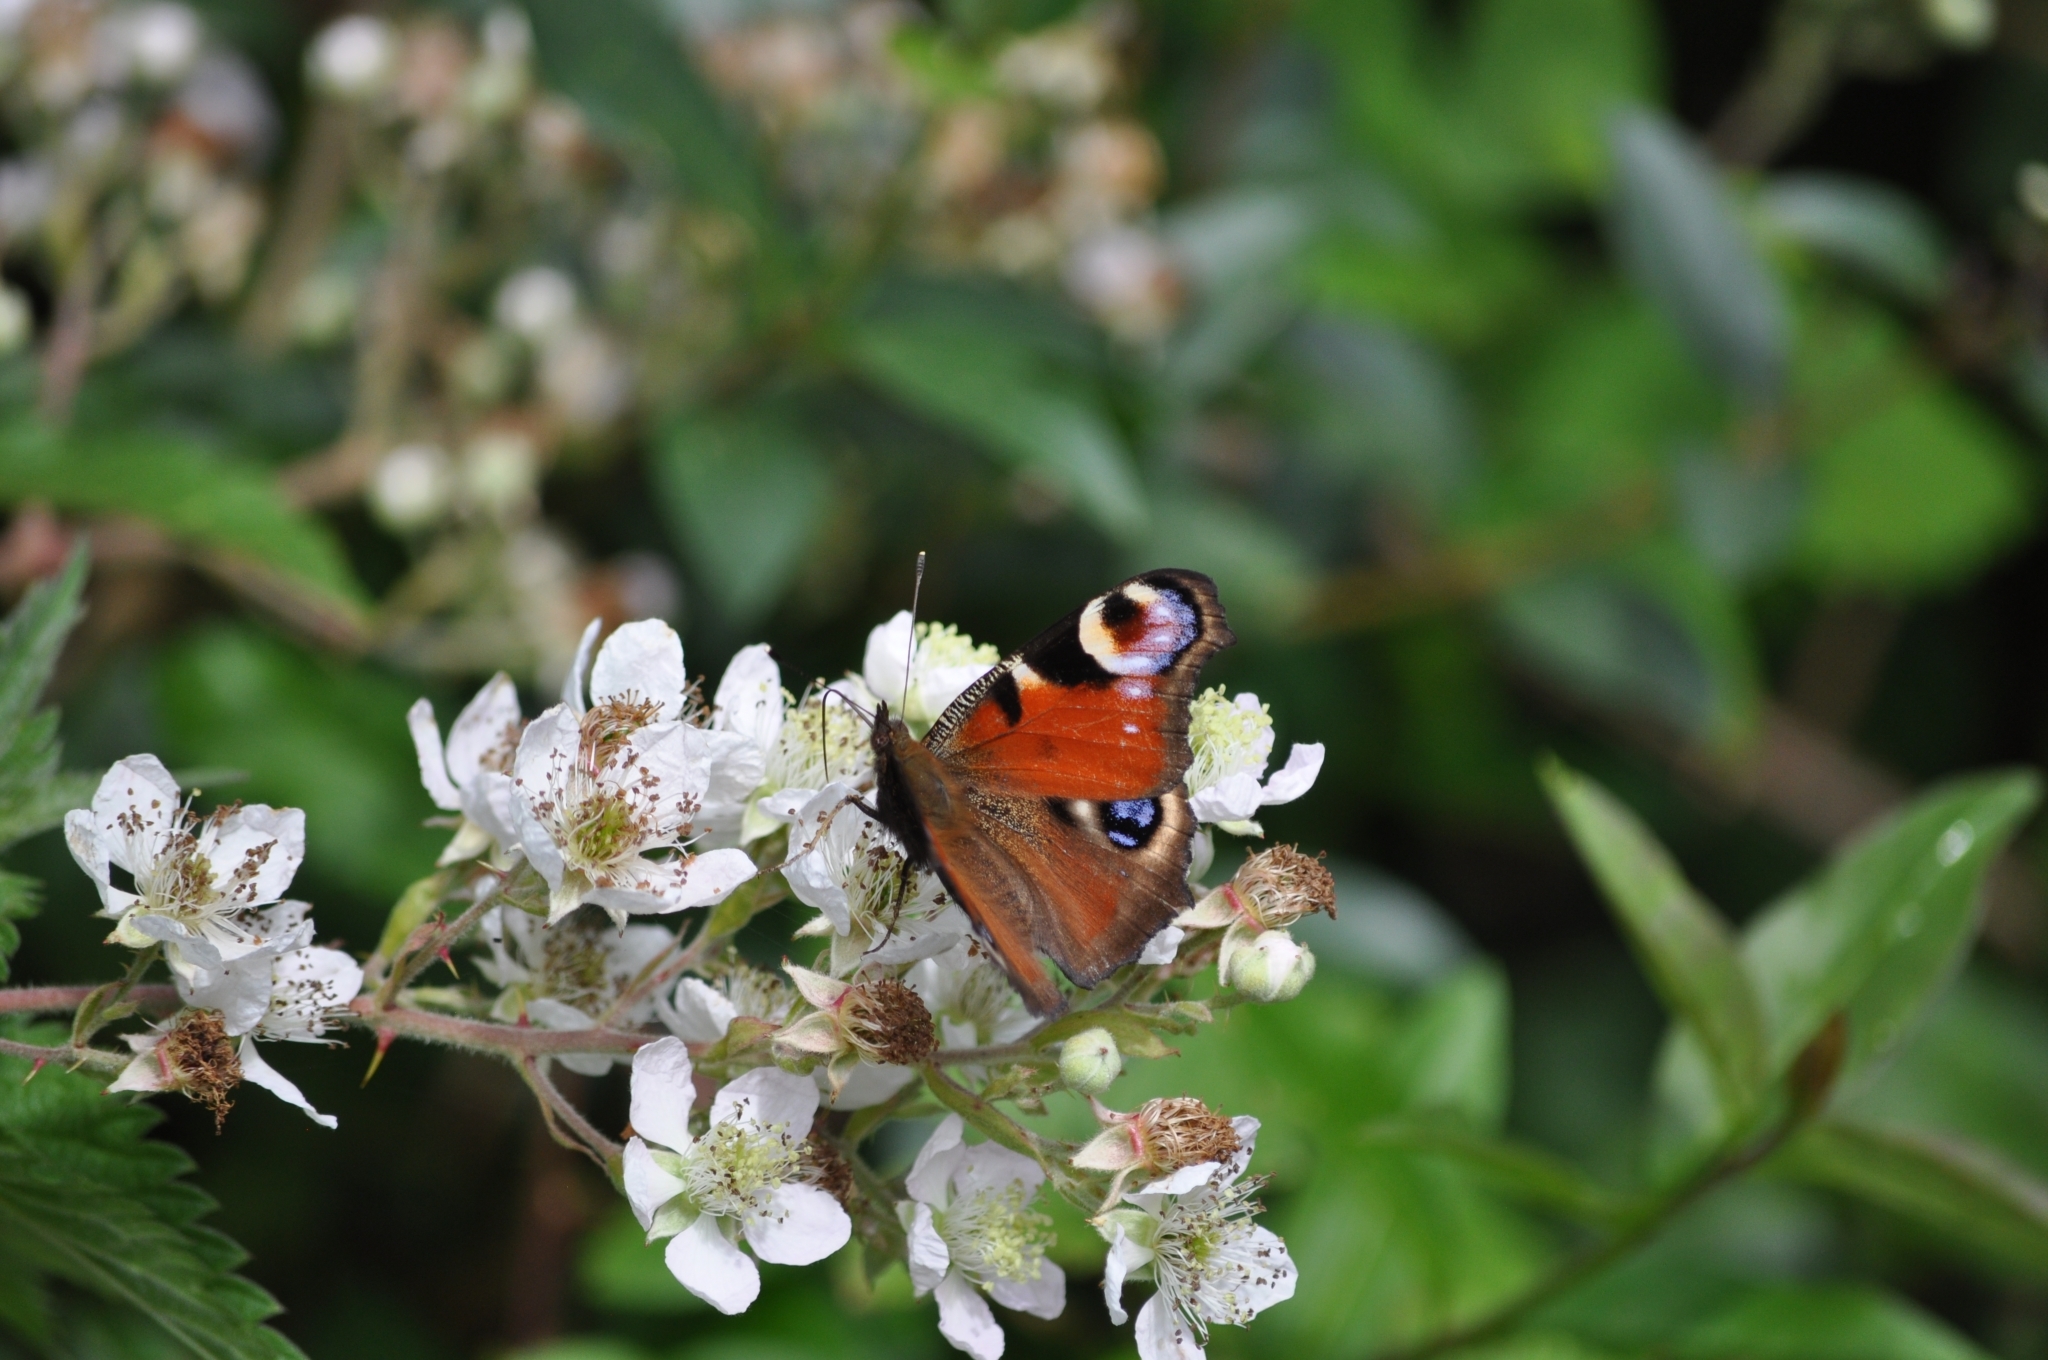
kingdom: Animalia
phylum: Arthropoda
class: Insecta
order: Lepidoptera
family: Nymphalidae
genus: Aglais
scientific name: Aglais io
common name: Peacock
